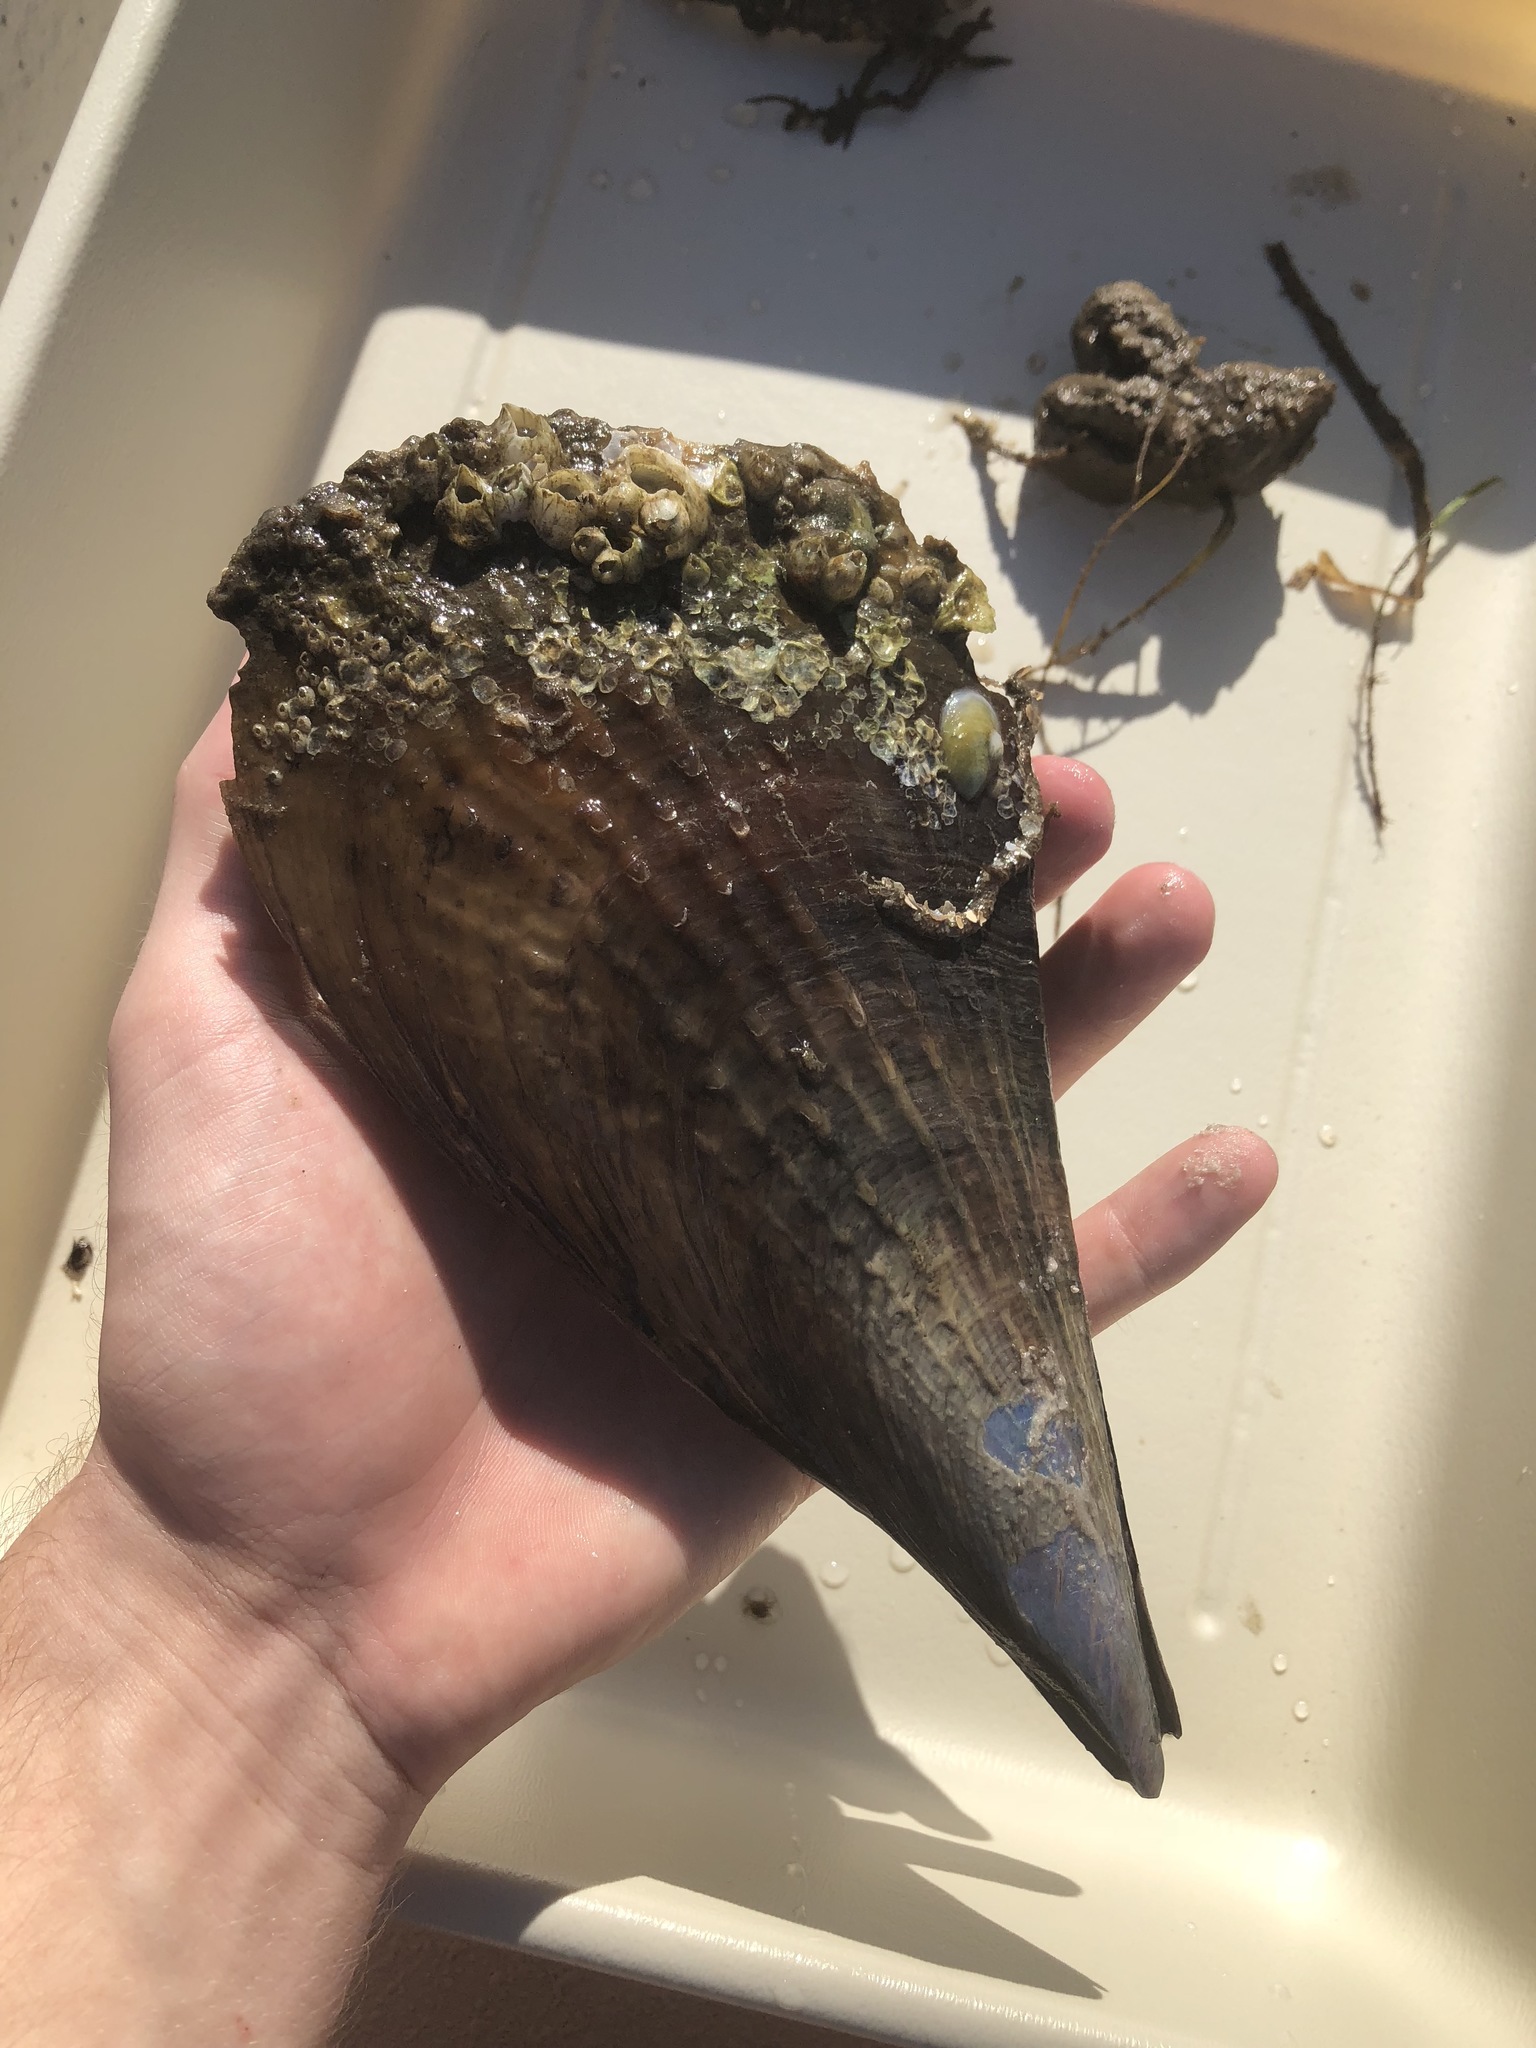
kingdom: Animalia
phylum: Mollusca
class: Bivalvia
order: Ostreida
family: Pinnidae
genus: Atrina
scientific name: Atrina rigida
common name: Stiff penshell
